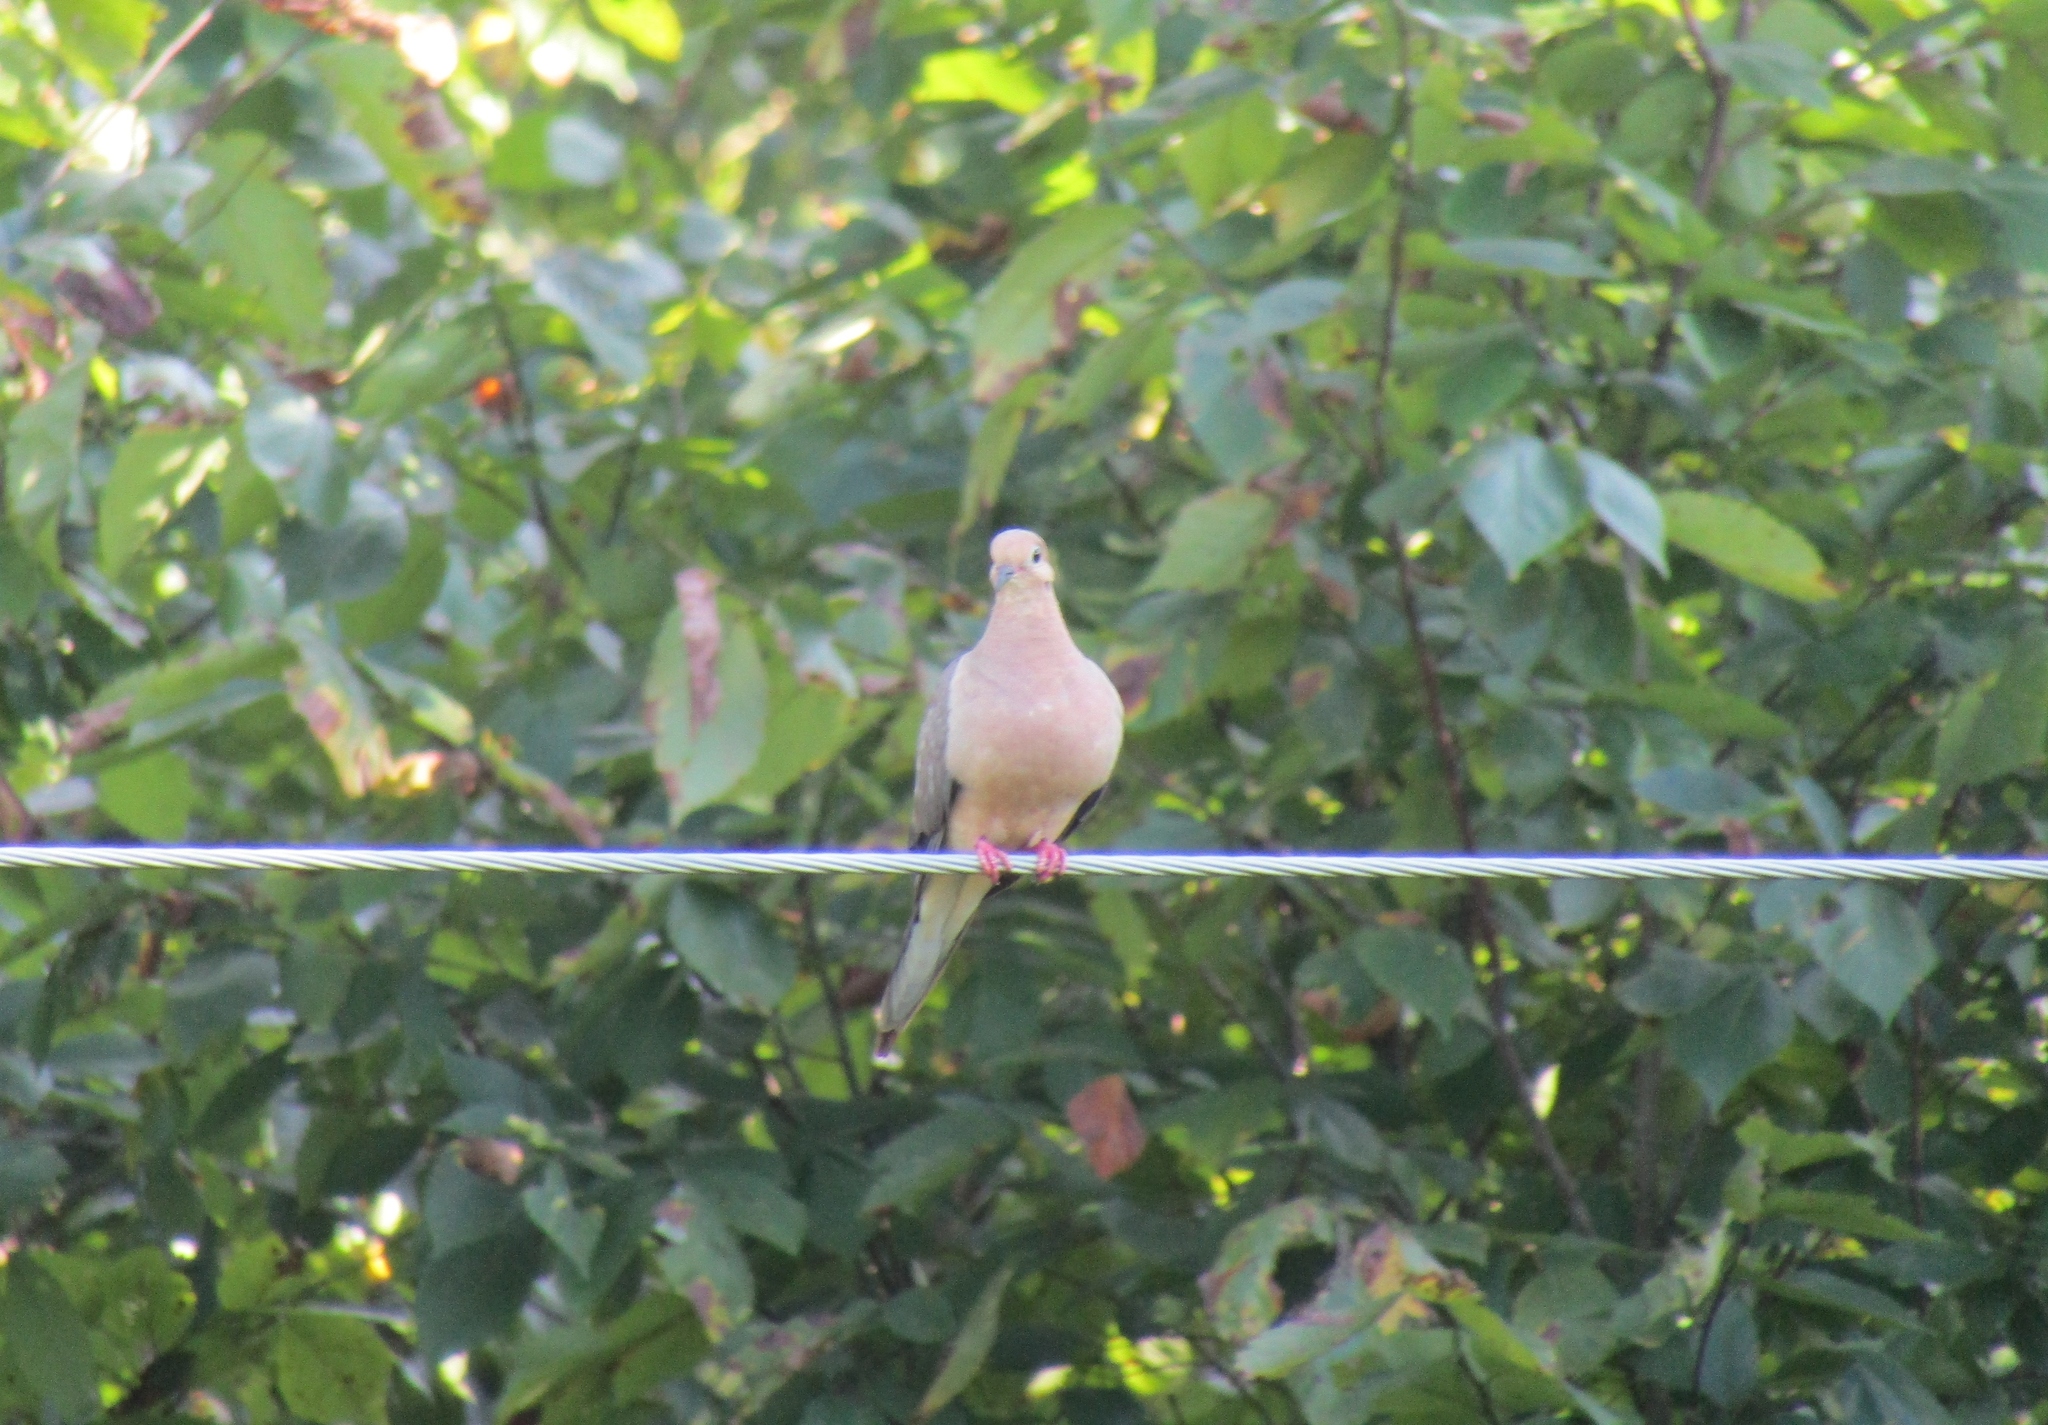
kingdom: Animalia
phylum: Chordata
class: Aves
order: Columbiformes
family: Columbidae
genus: Zenaida
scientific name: Zenaida macroura
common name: Mourning dove
